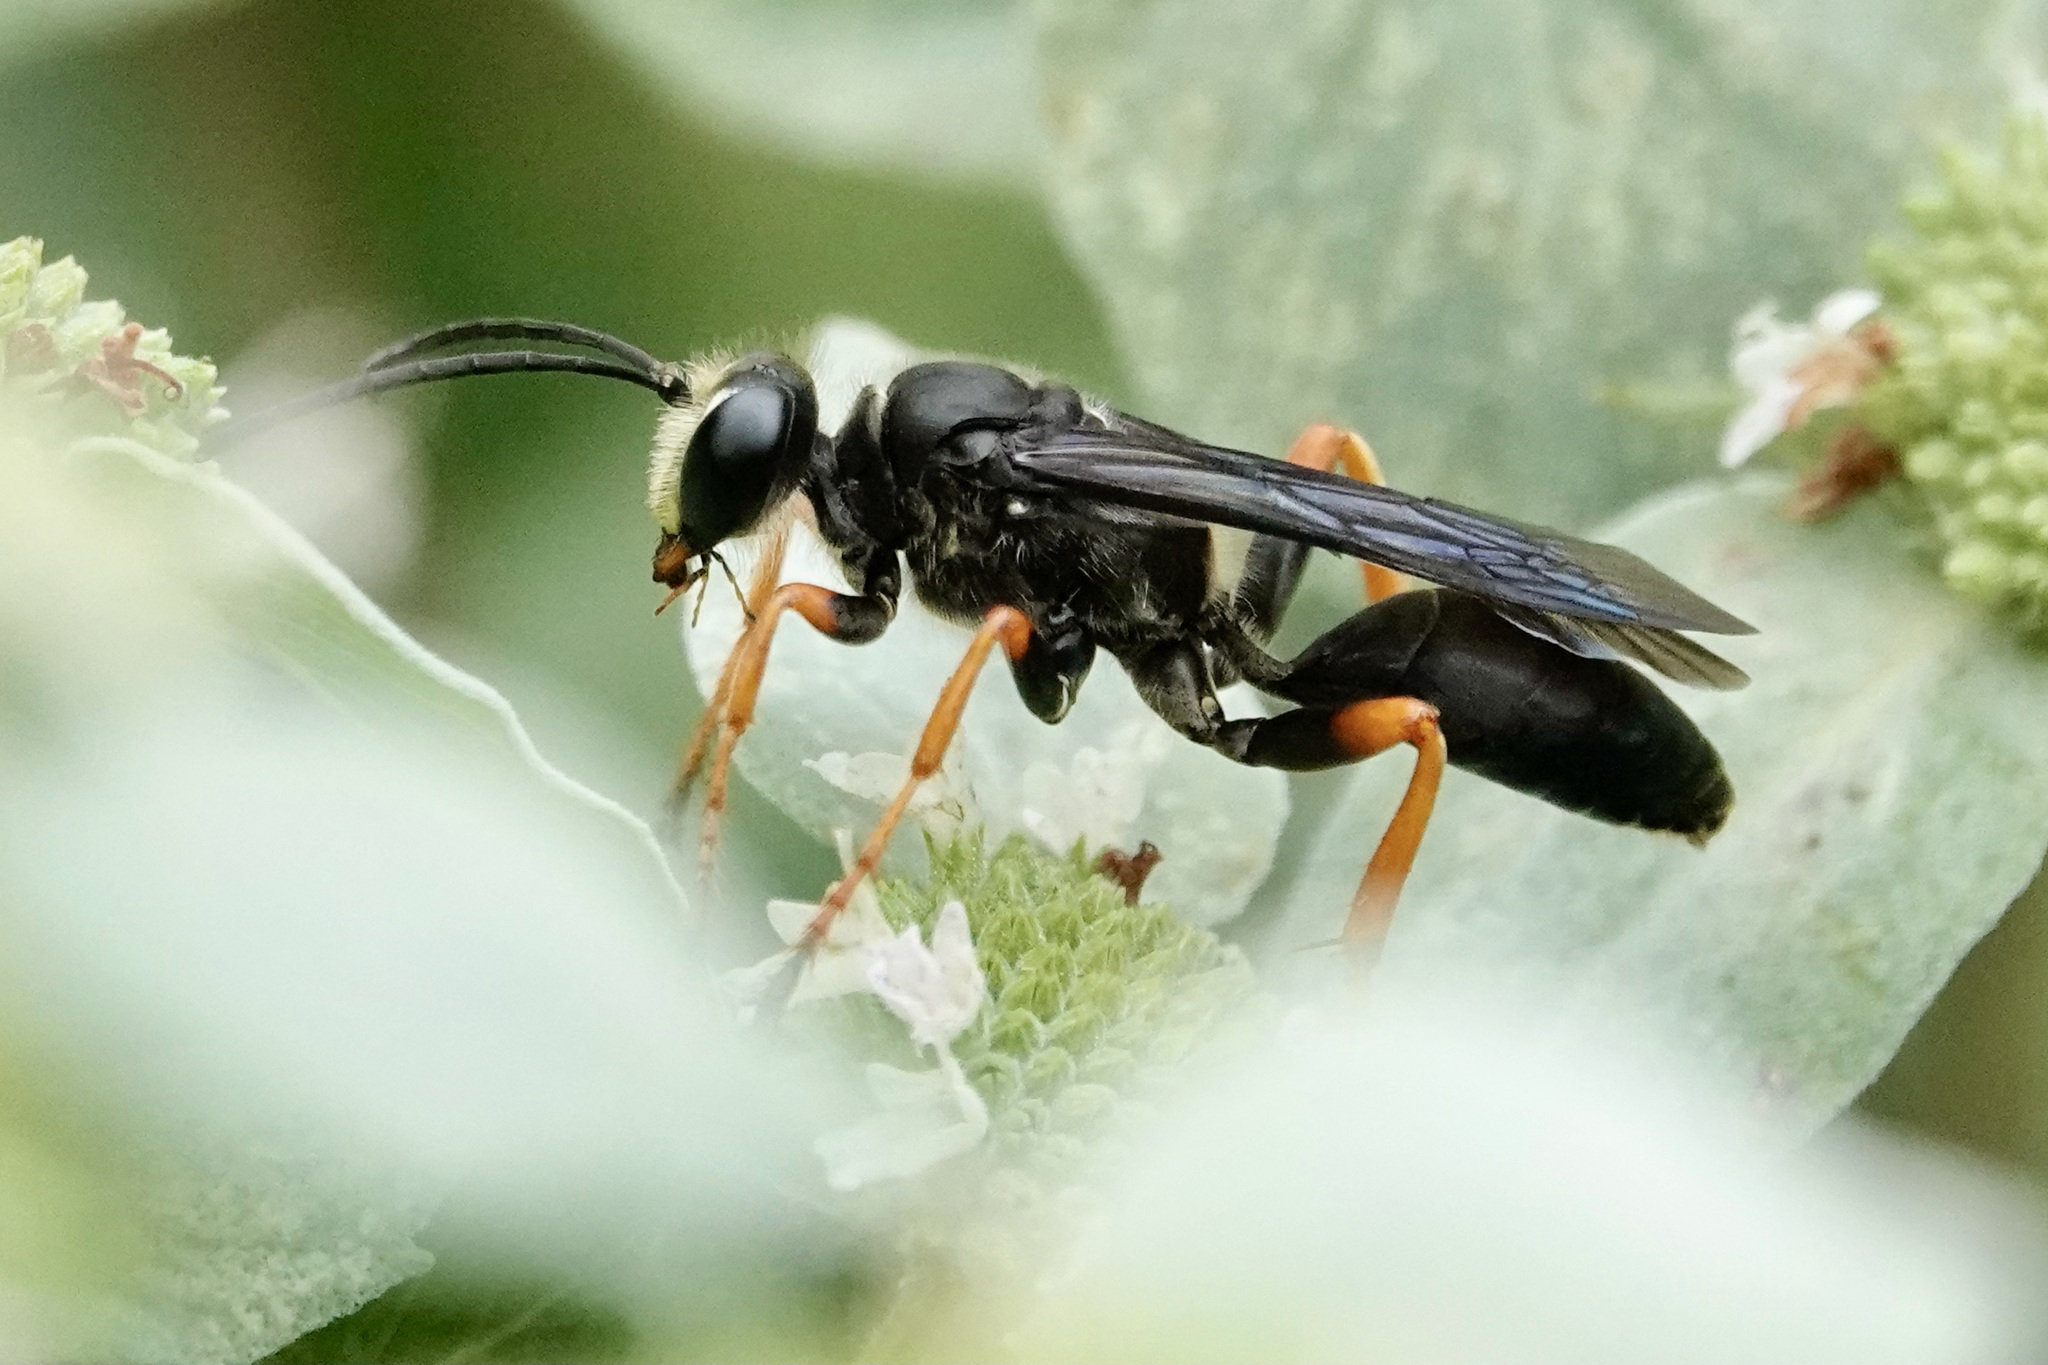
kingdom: Animalia
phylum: Arthropoda
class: Insecta
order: Hymenoptera
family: Sphecidae
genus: Sphex
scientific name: Sphex nudus
